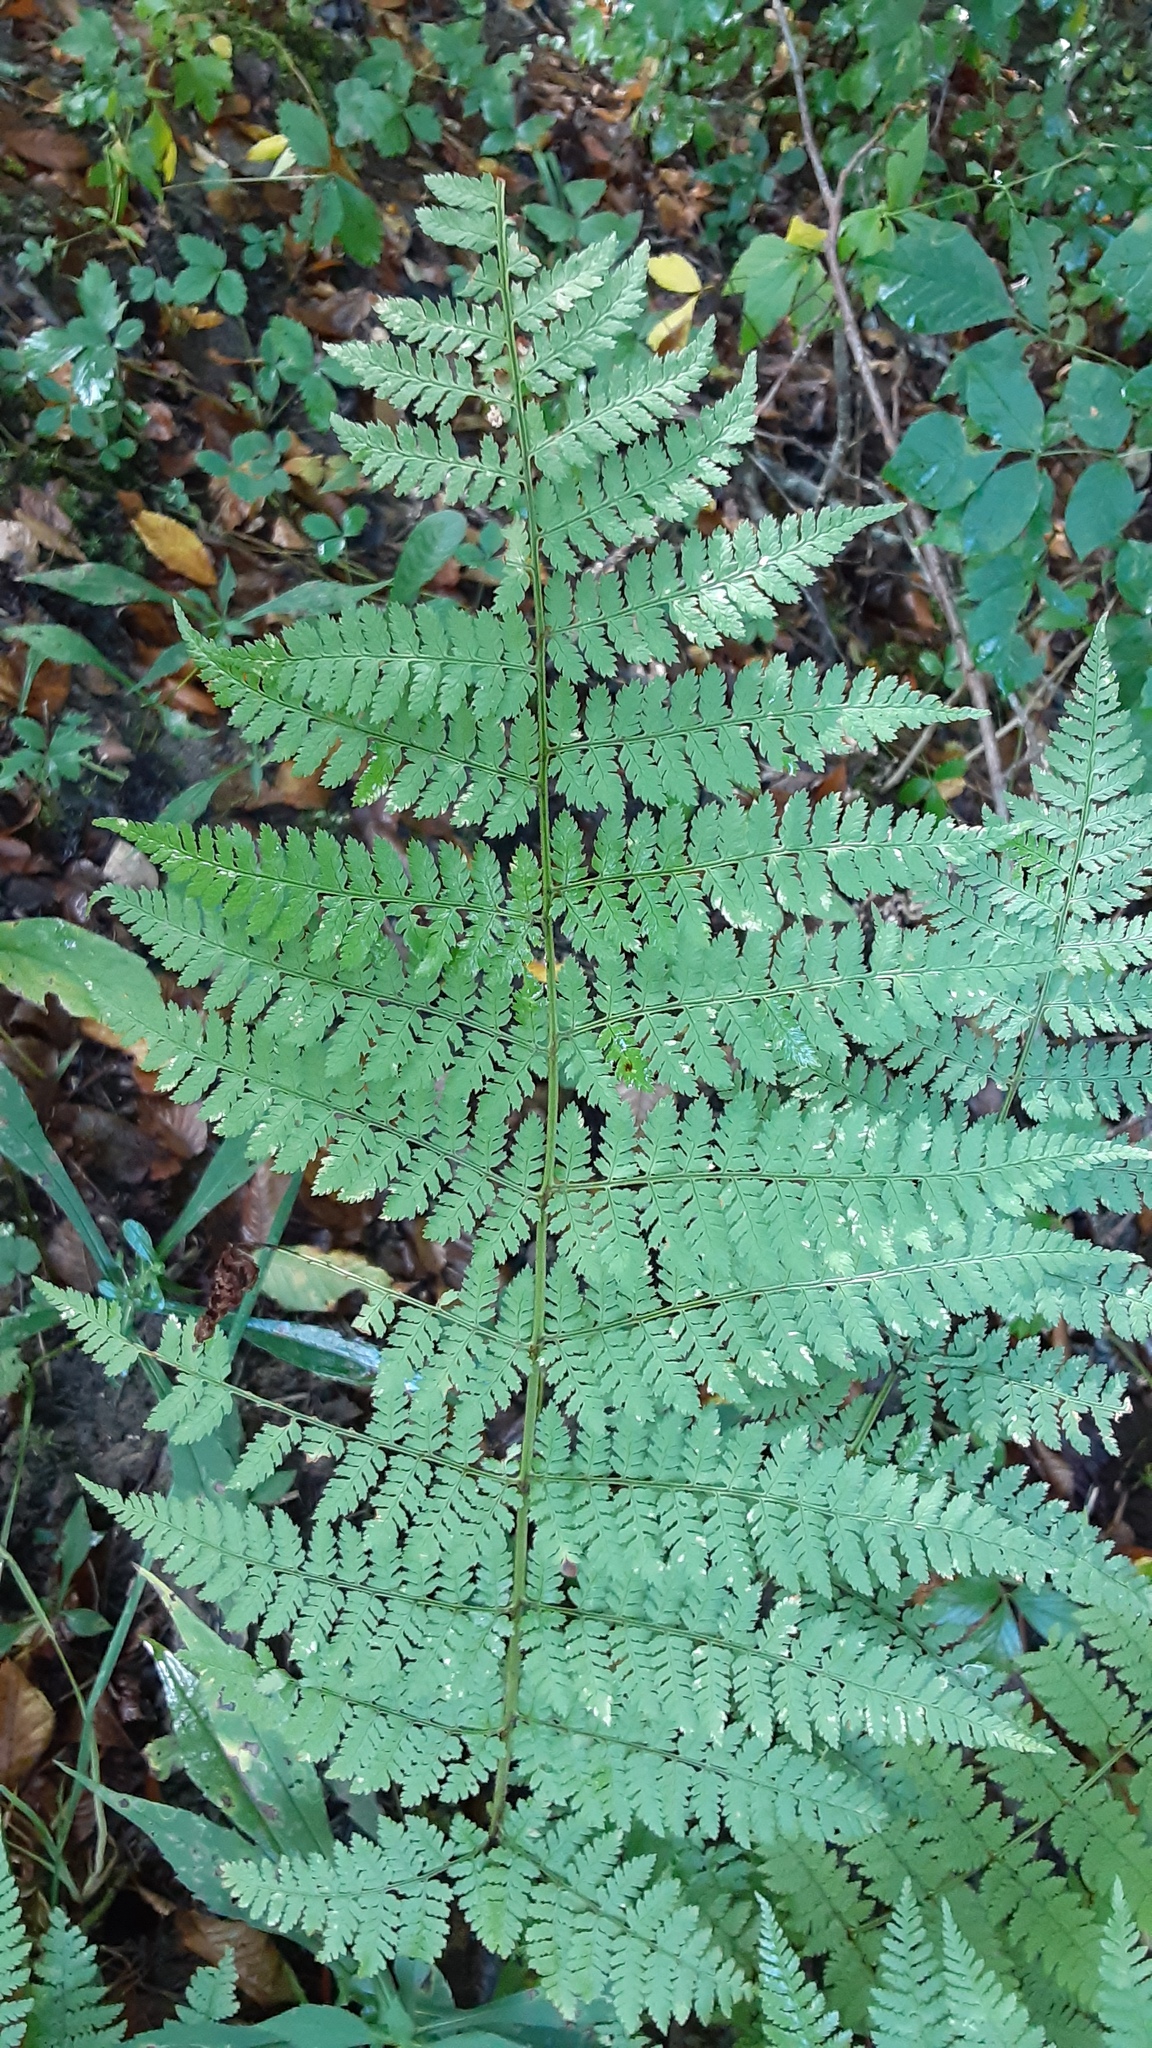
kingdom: Plantae
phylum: Tracheophyta
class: Polypodiopsida
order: Polypodiales
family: Dryopteridaceae
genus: Dryopteris
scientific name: Dryopteris intermedia
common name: Evergreen wood fern
